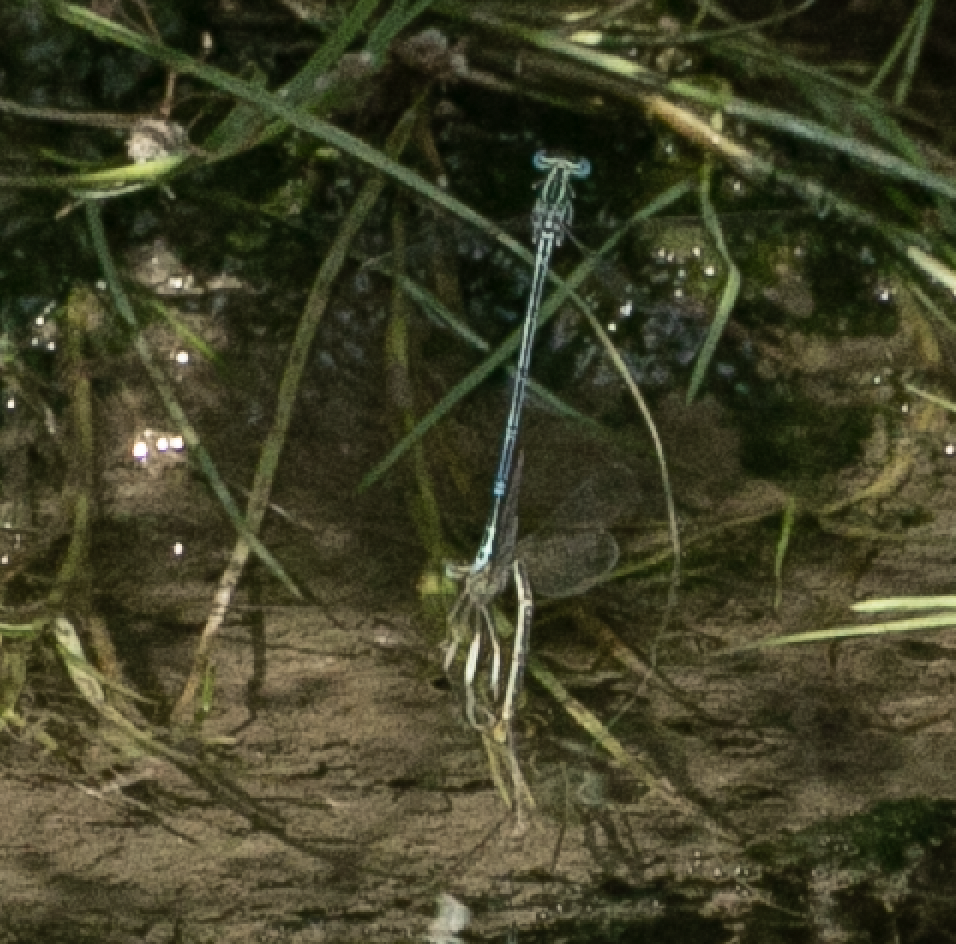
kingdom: Animalia
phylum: Arthropoda
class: Insecta
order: Odonata
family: Platycnemididae
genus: Platycnemis
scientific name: Platycnemis pennipes
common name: White-legged damselfly
